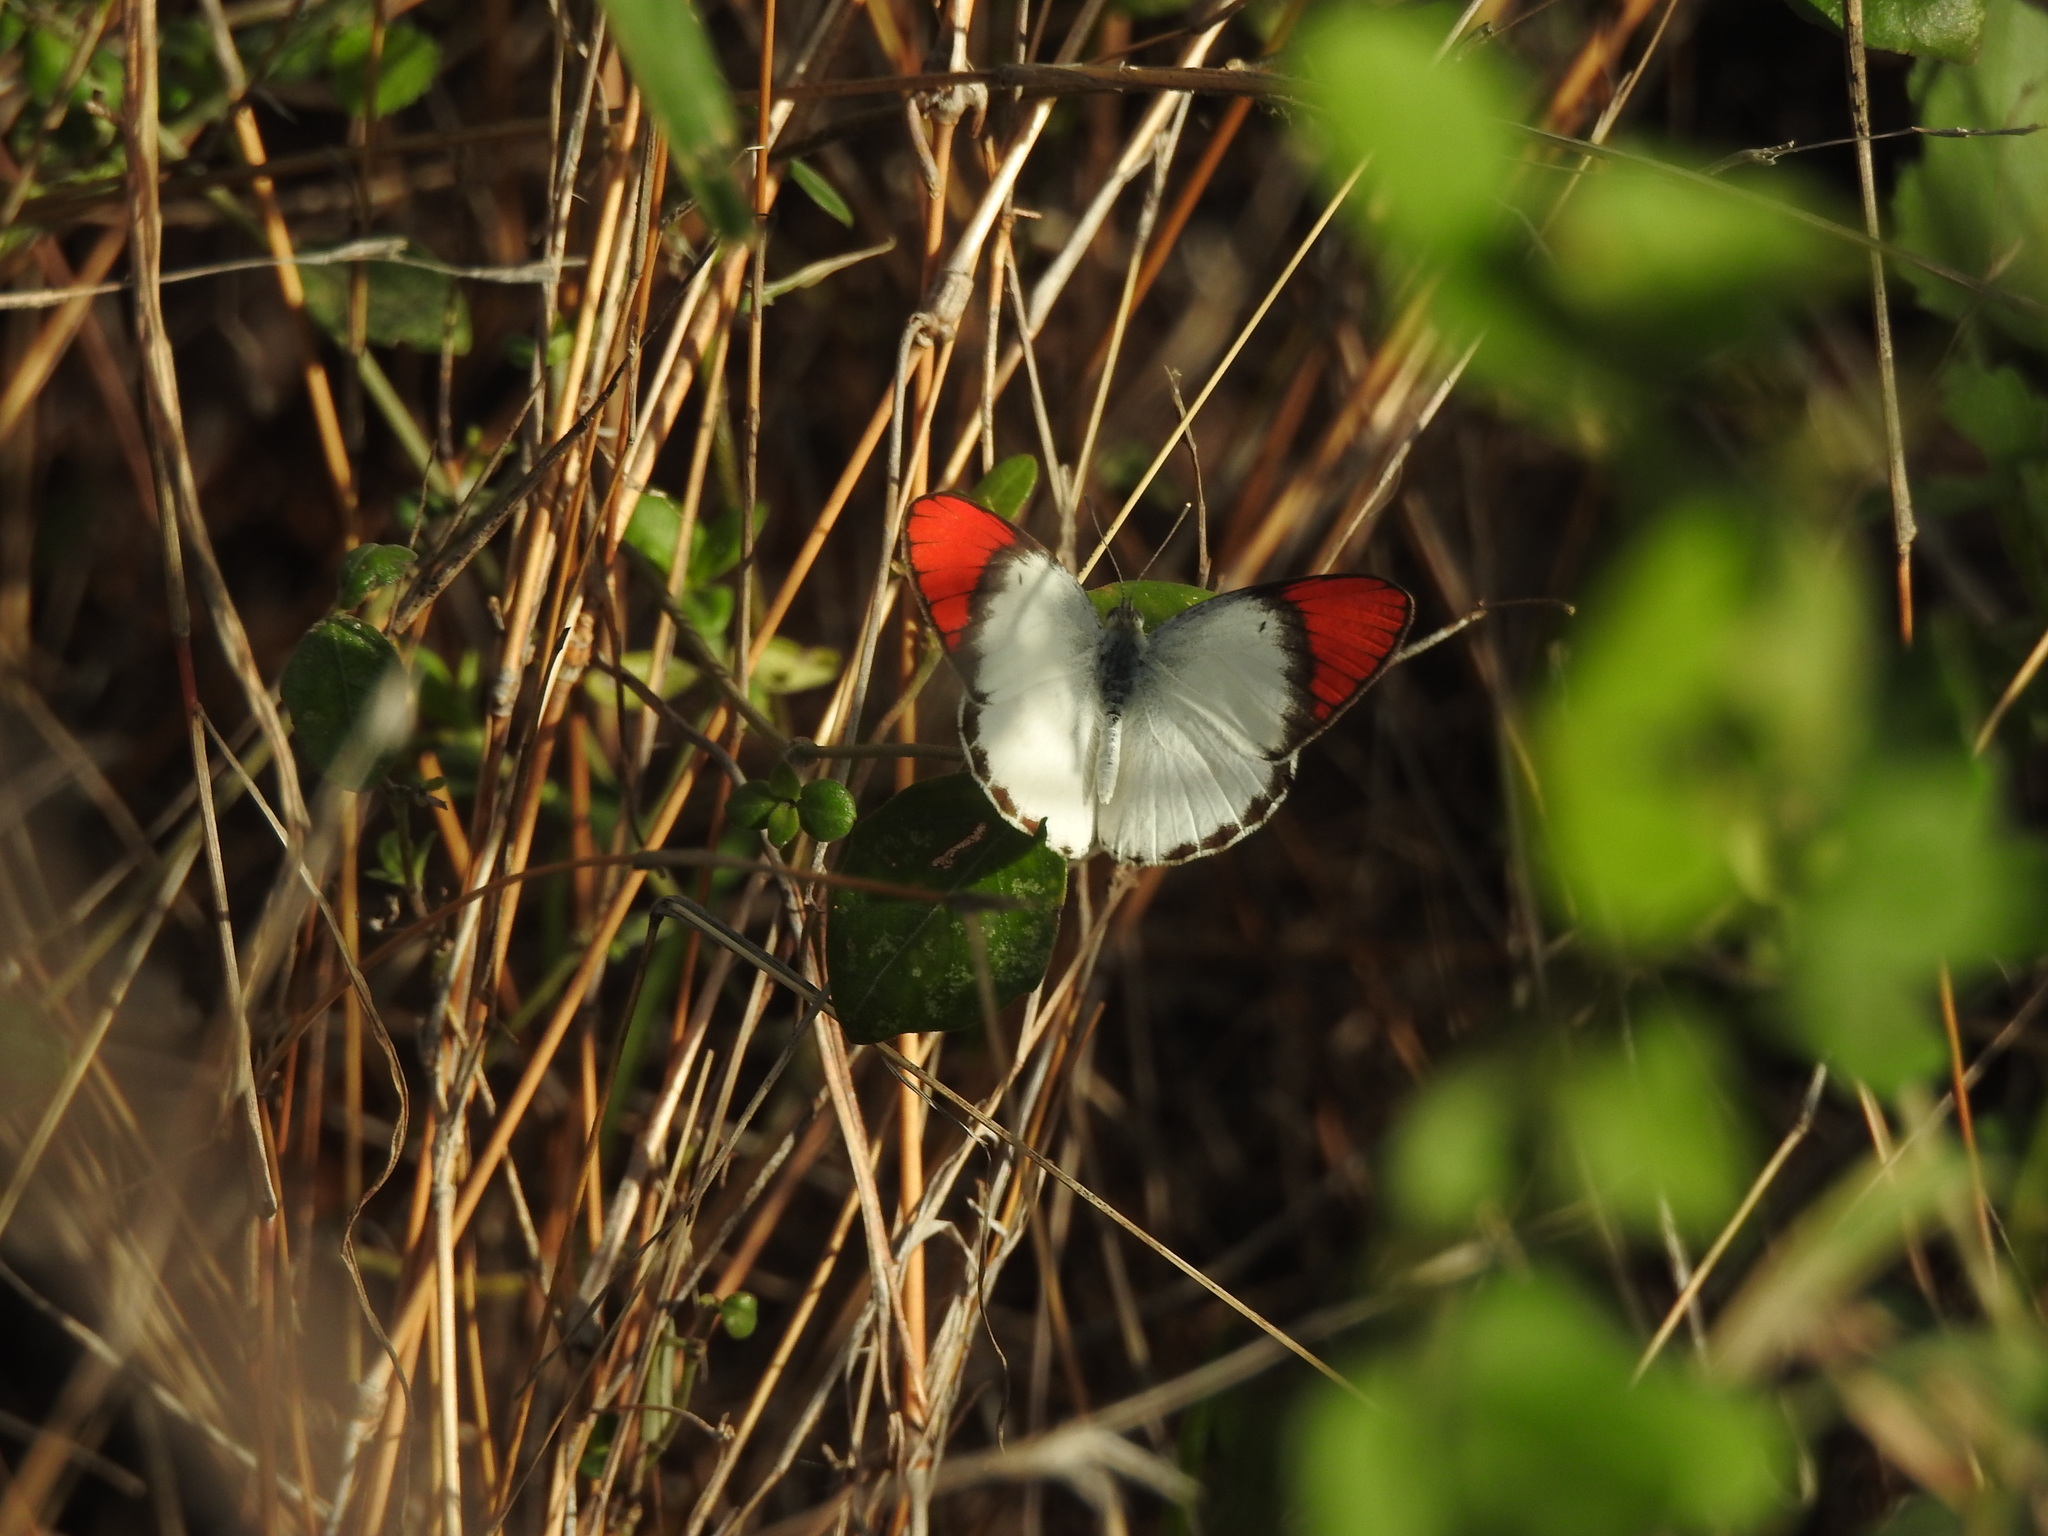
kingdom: Animalia
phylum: Arthropoda
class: Insecta
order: Lepidoptera
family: Pieridae
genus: Colotis
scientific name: Colotis danae
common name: Crimson tip
